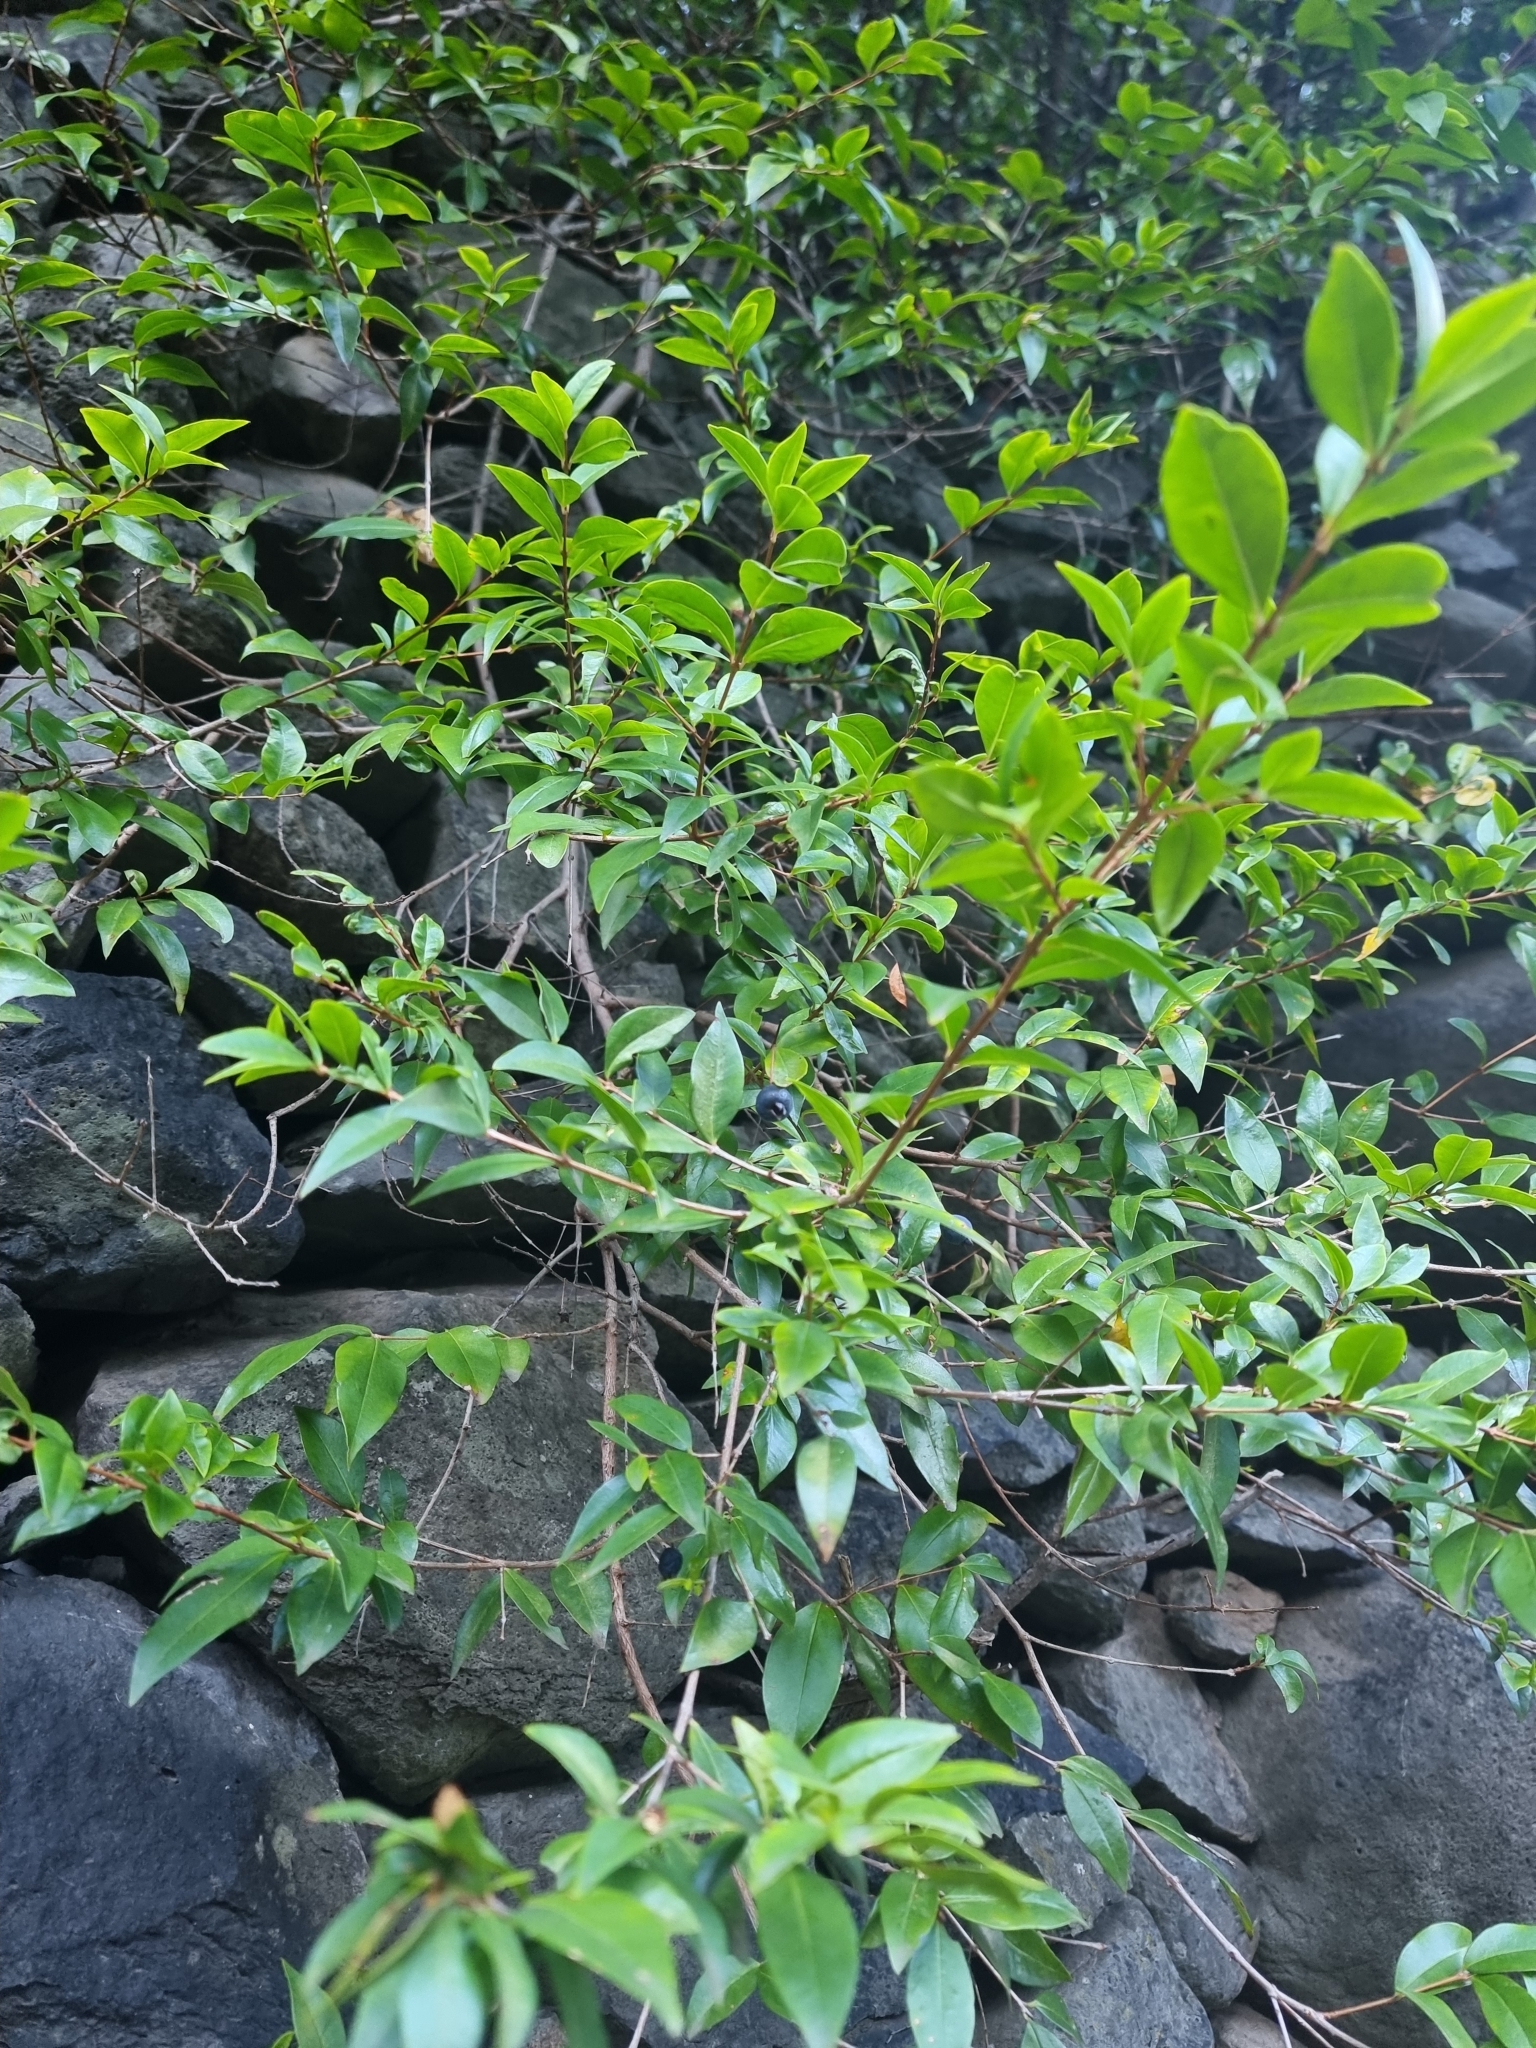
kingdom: Plantae
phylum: Tracheophyta
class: Magnoliopsida
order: Myrtales
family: Myrtaceae
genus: Myrtus
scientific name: Myrtus communis
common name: Myrtle
